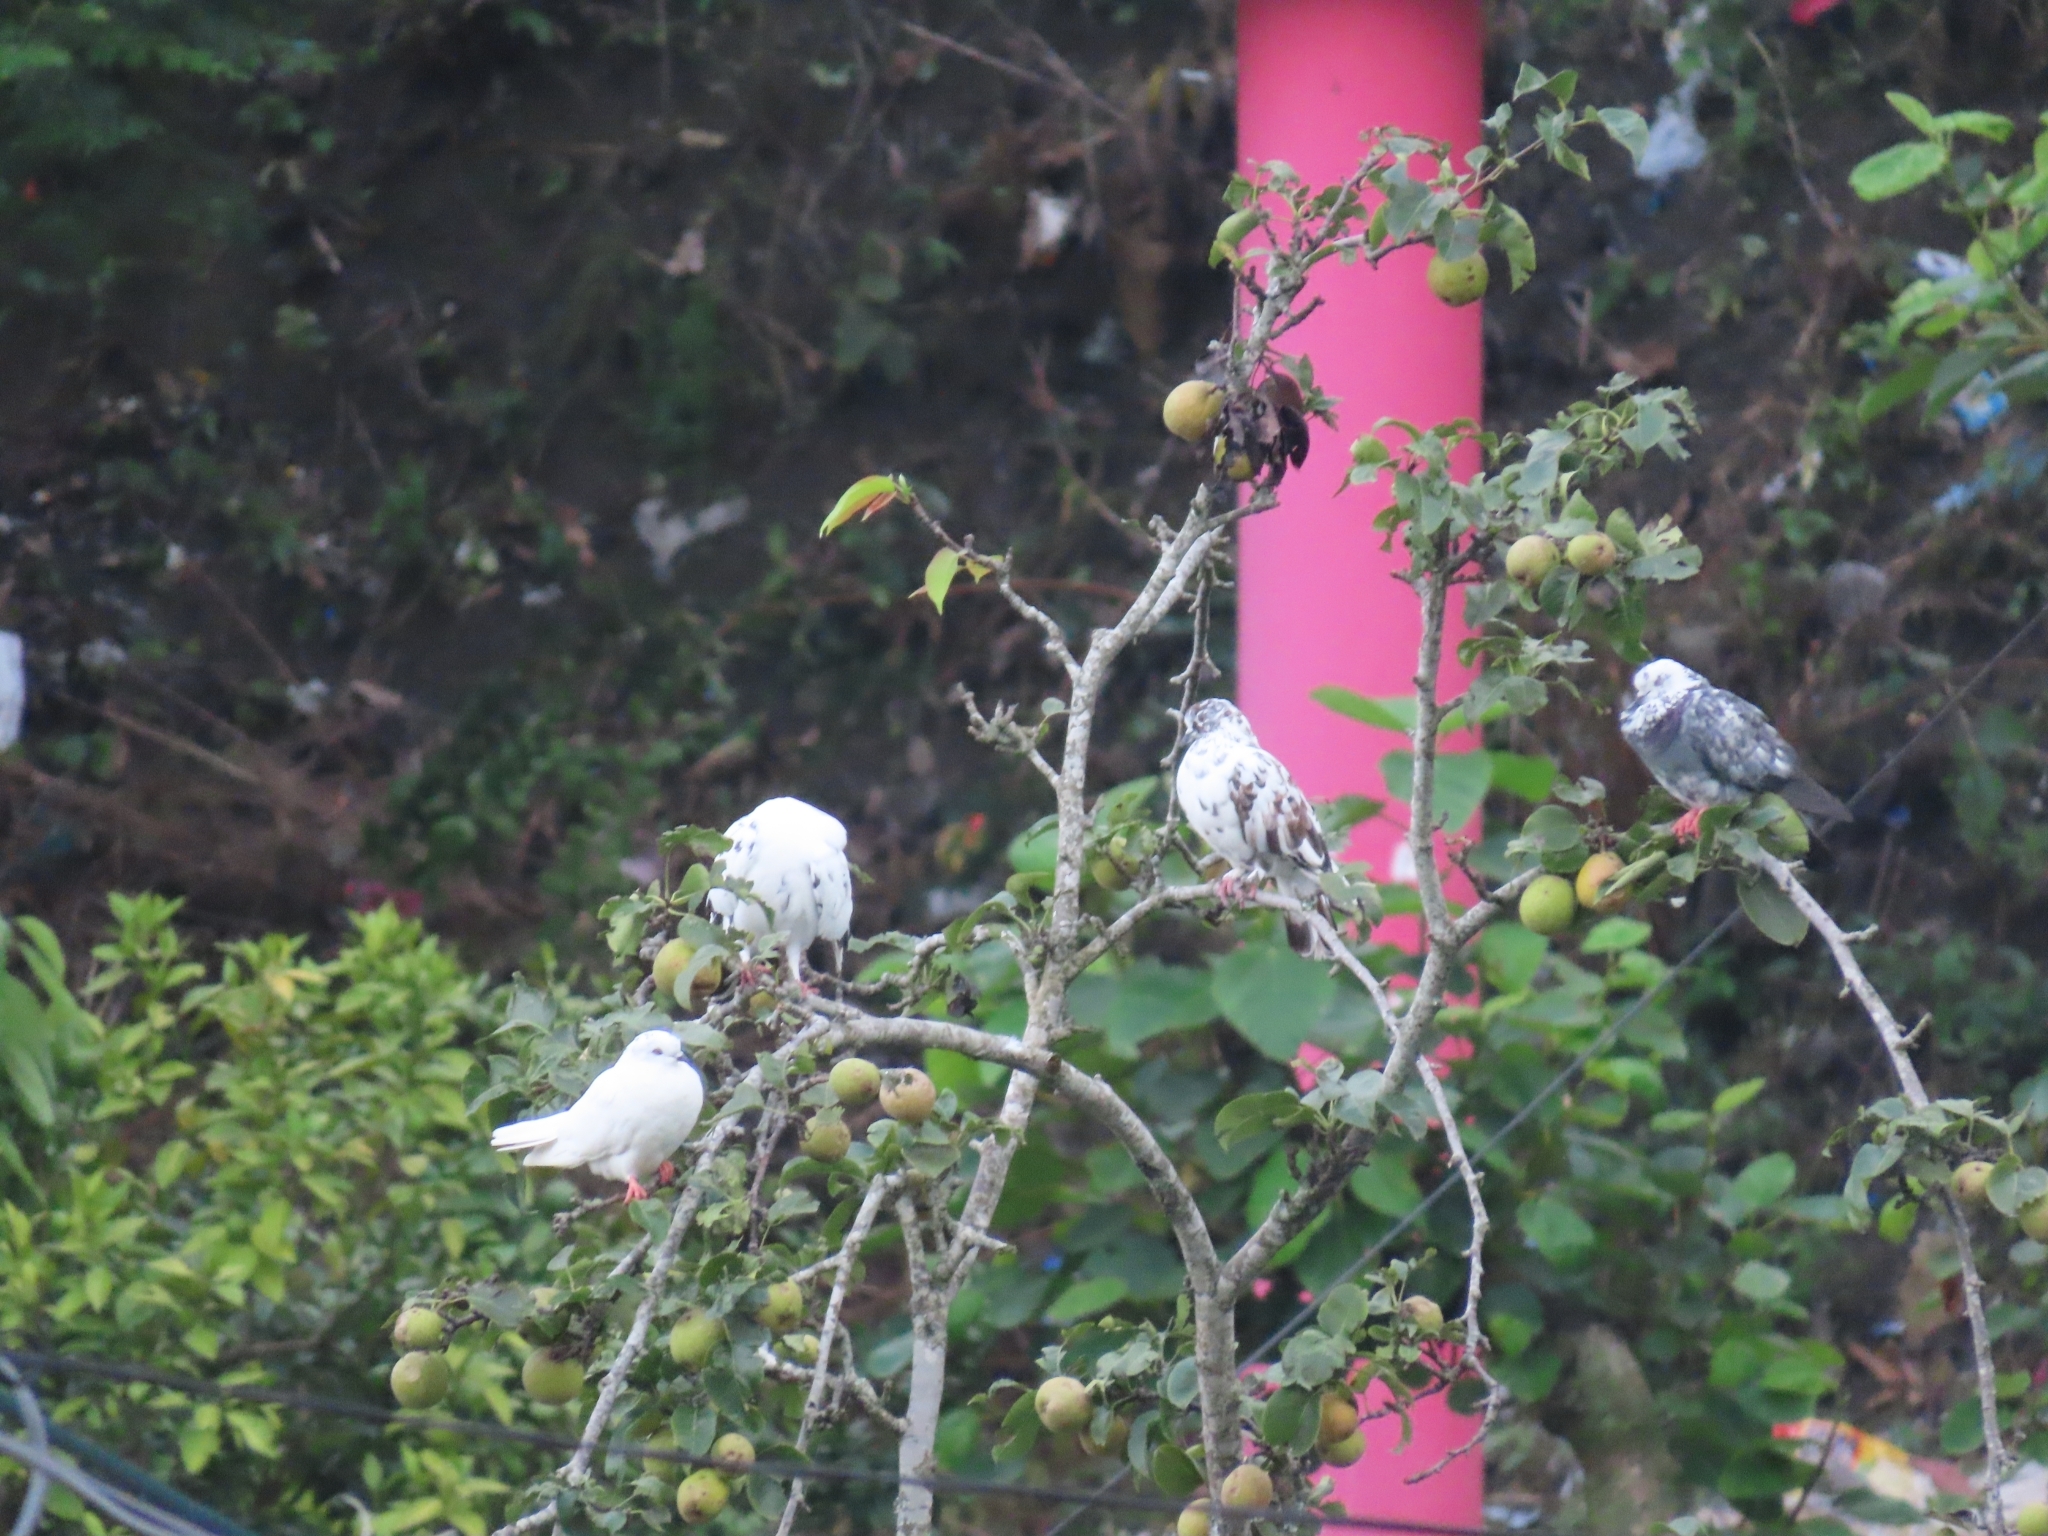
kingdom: Animalia
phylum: Chordata
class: Aves
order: Columbiformes
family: Columbidae
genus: Columba
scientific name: Columba livia
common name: Rock pigeon
